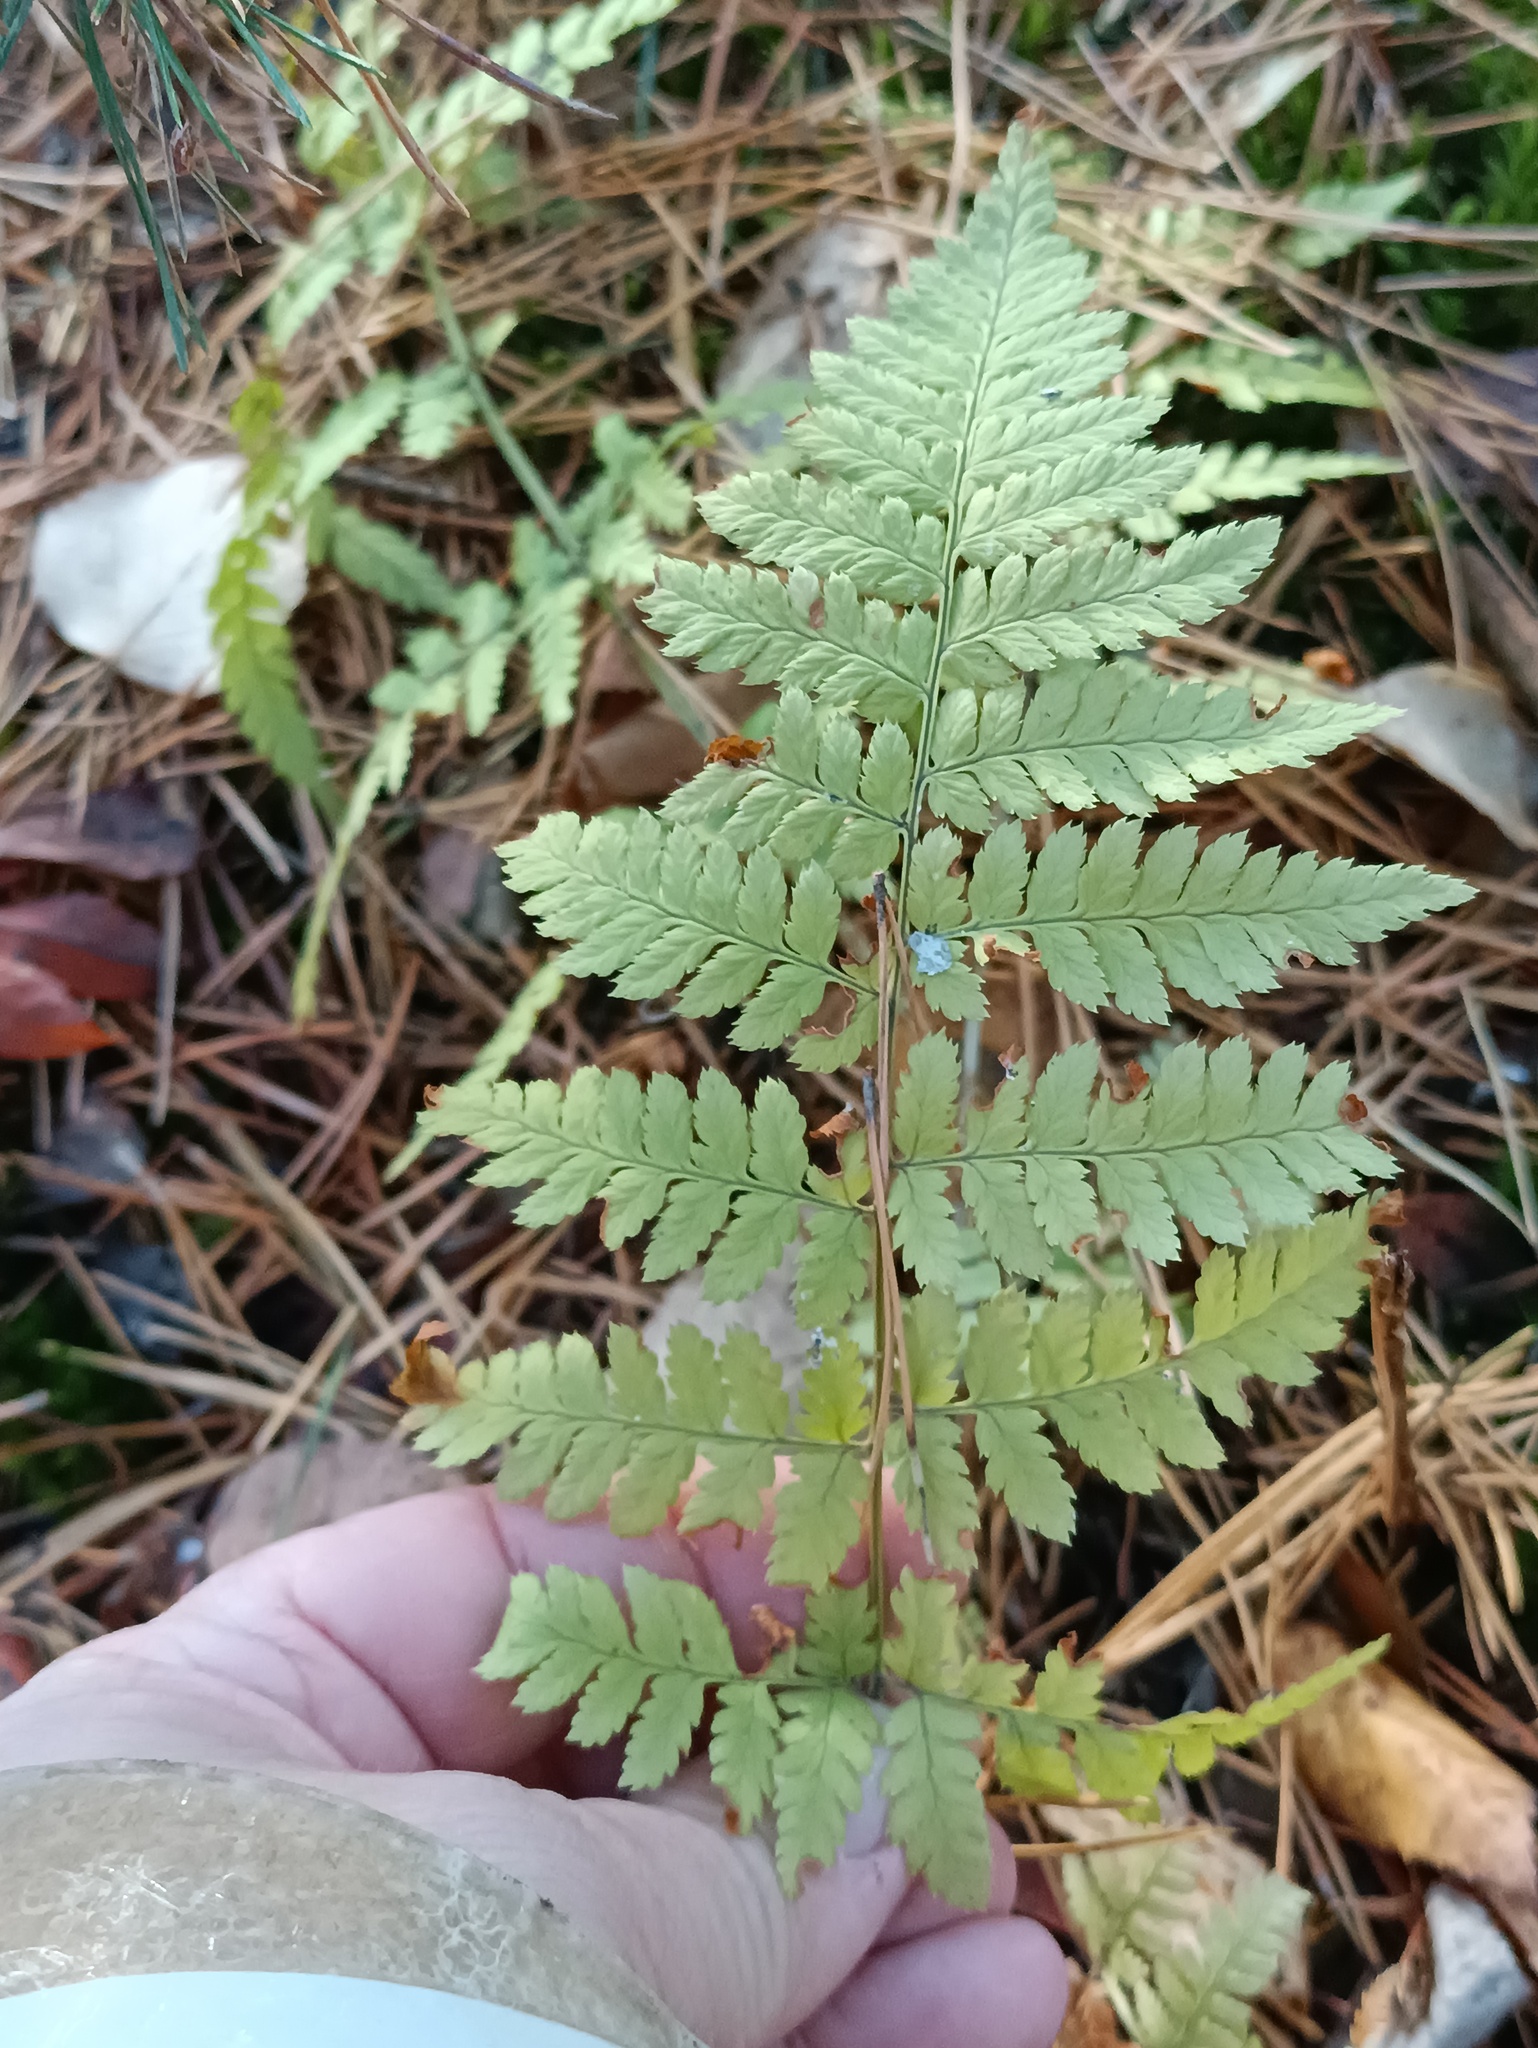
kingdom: Plantae
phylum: Tracheophyta
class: Polypodiopsida
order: Polypodiales
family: Dryopteridaceae
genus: Dryopteris
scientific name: Dryopteris carthusiana
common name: Narrow buckler-fern
